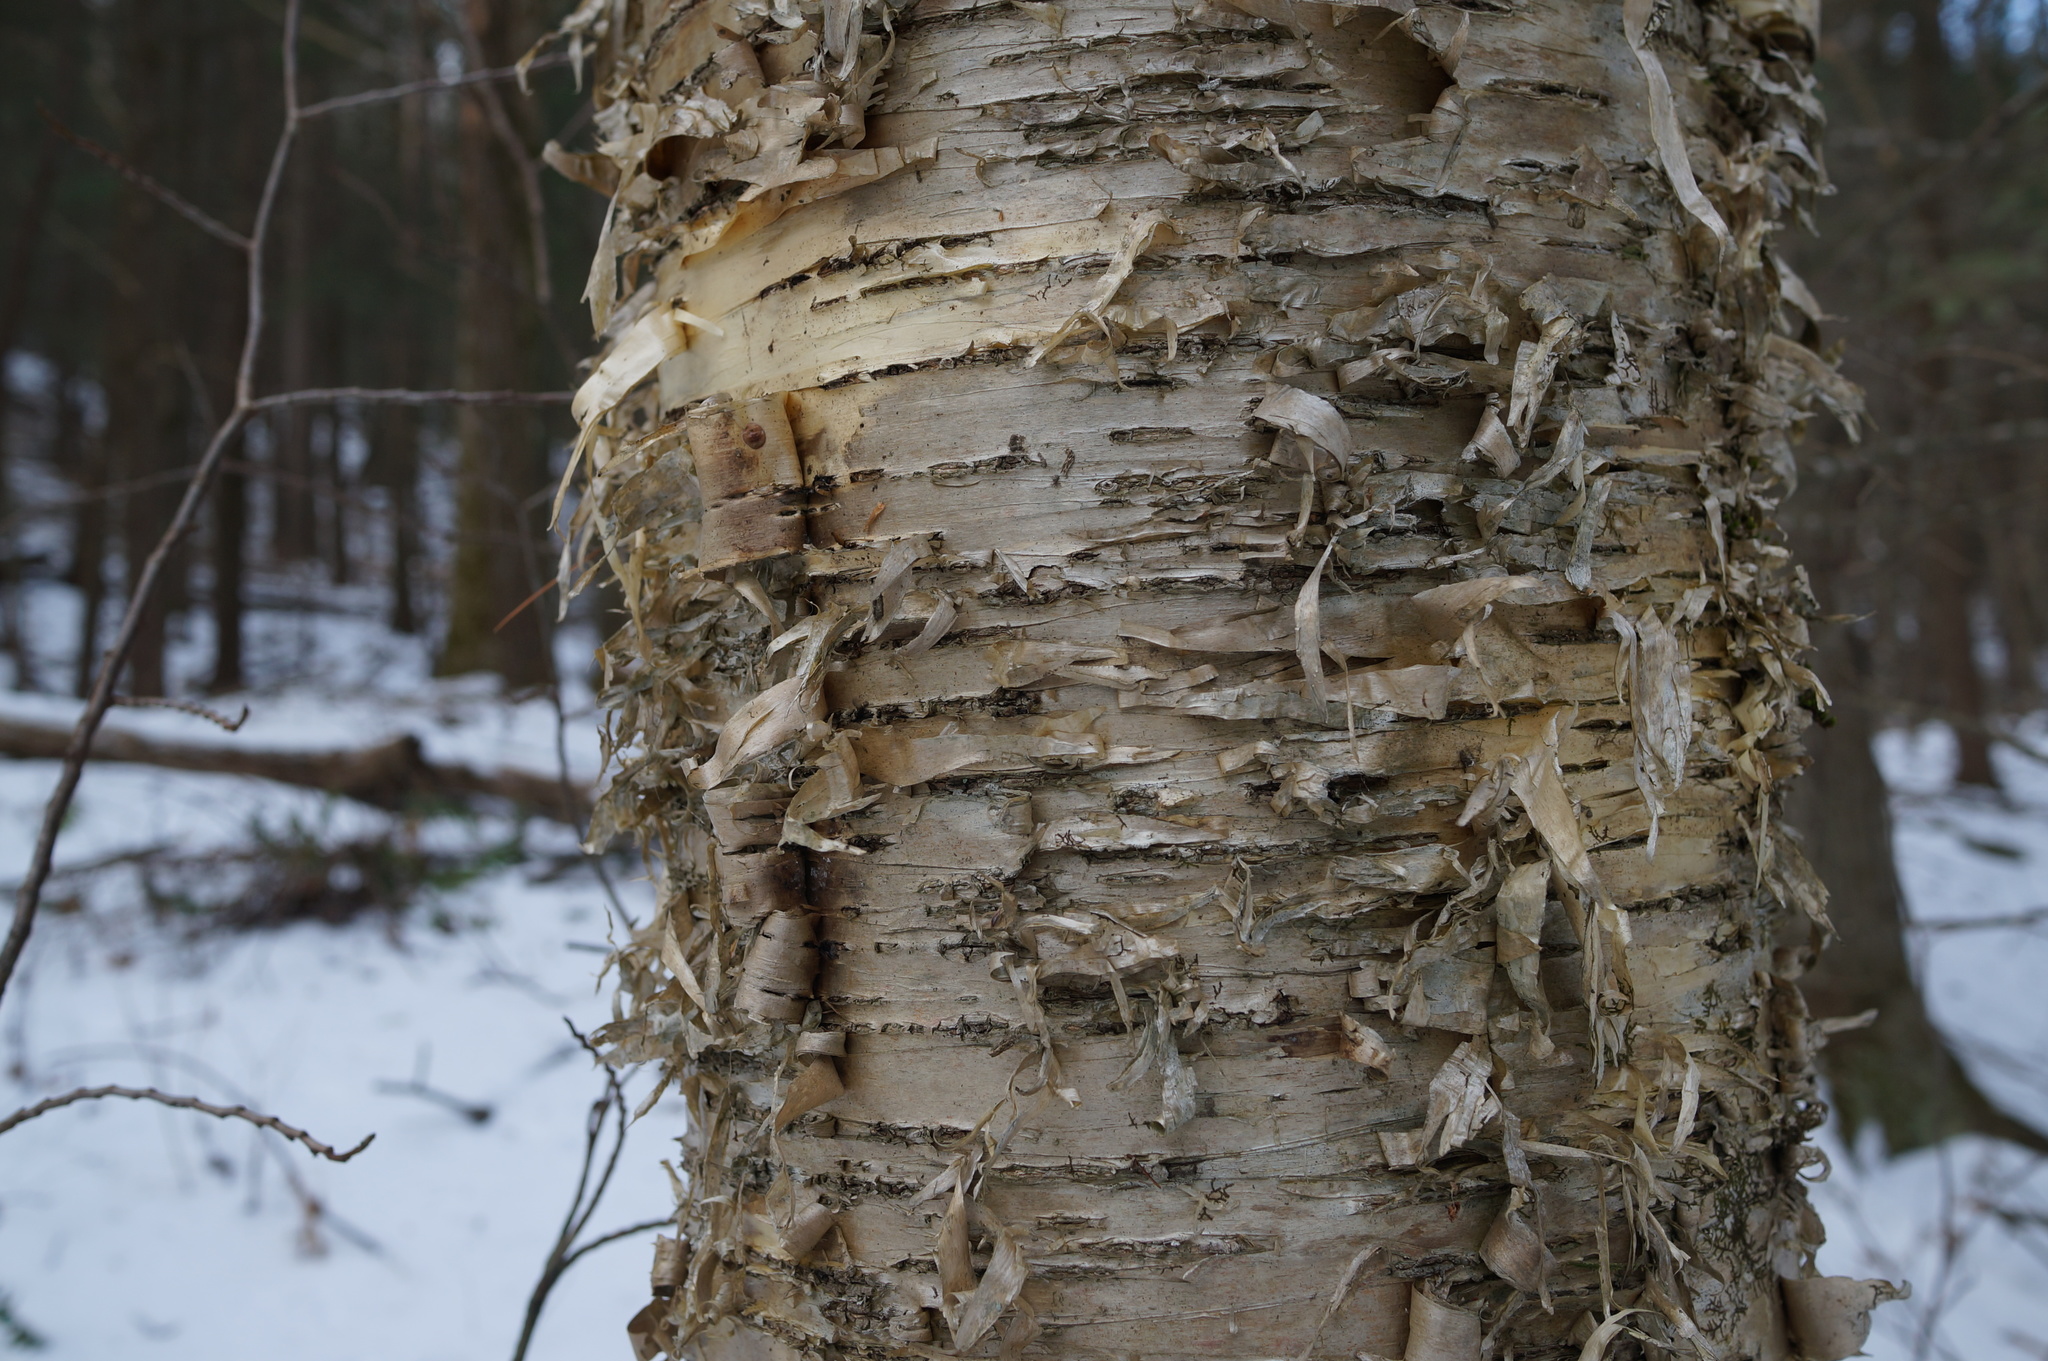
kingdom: Plantae
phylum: Tracheophyta
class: Magnoliopsida
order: Fagales
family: Betulaceae
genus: Betula
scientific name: Betula alleghaniensis
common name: Yellow birch
